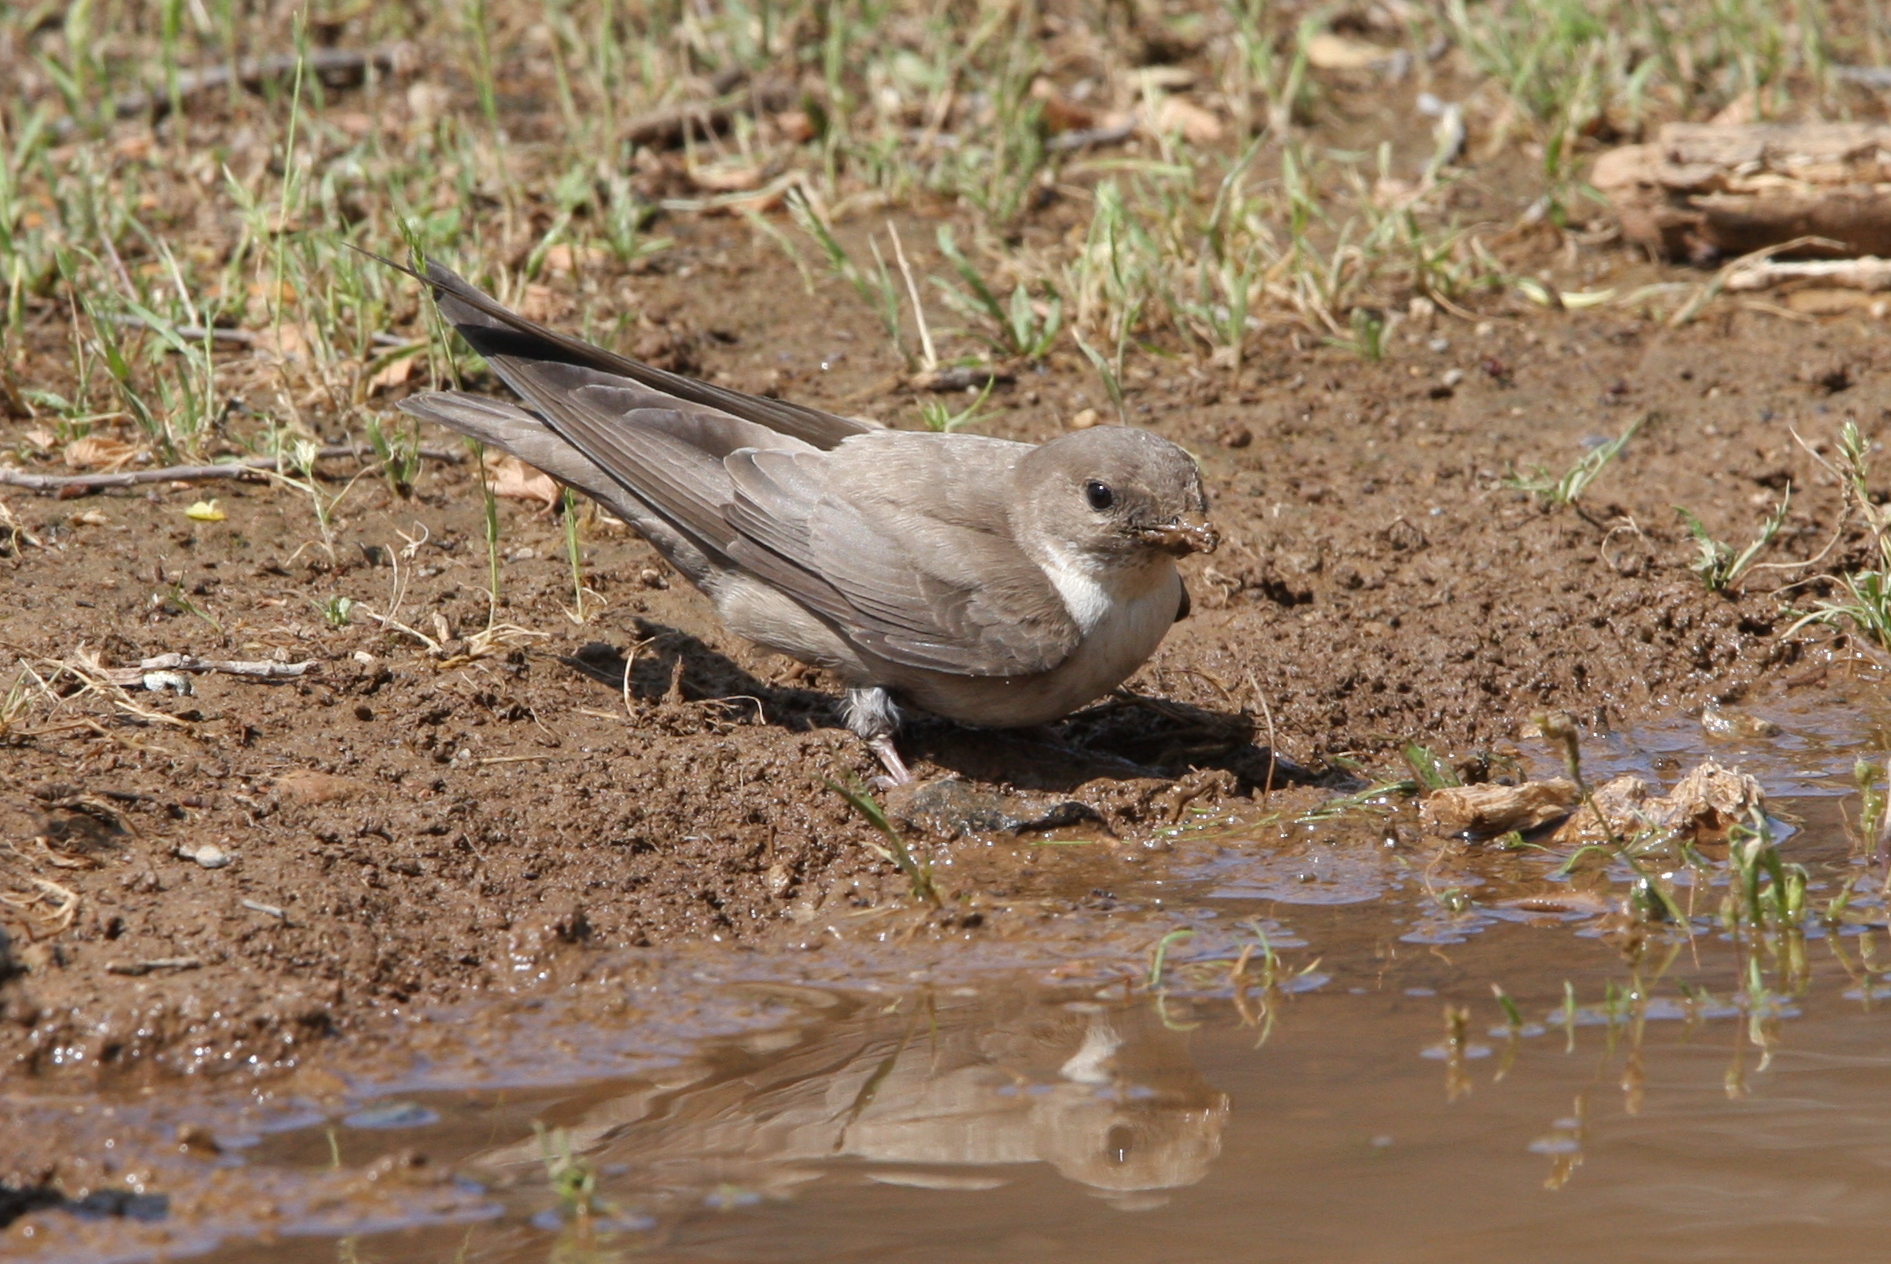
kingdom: Animalia
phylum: Chordata
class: Aves
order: Passeriformes
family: Hirundinidae
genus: Ptyonoprogne
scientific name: Ptyonoprogne rupestris
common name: Eurasian crag martin
